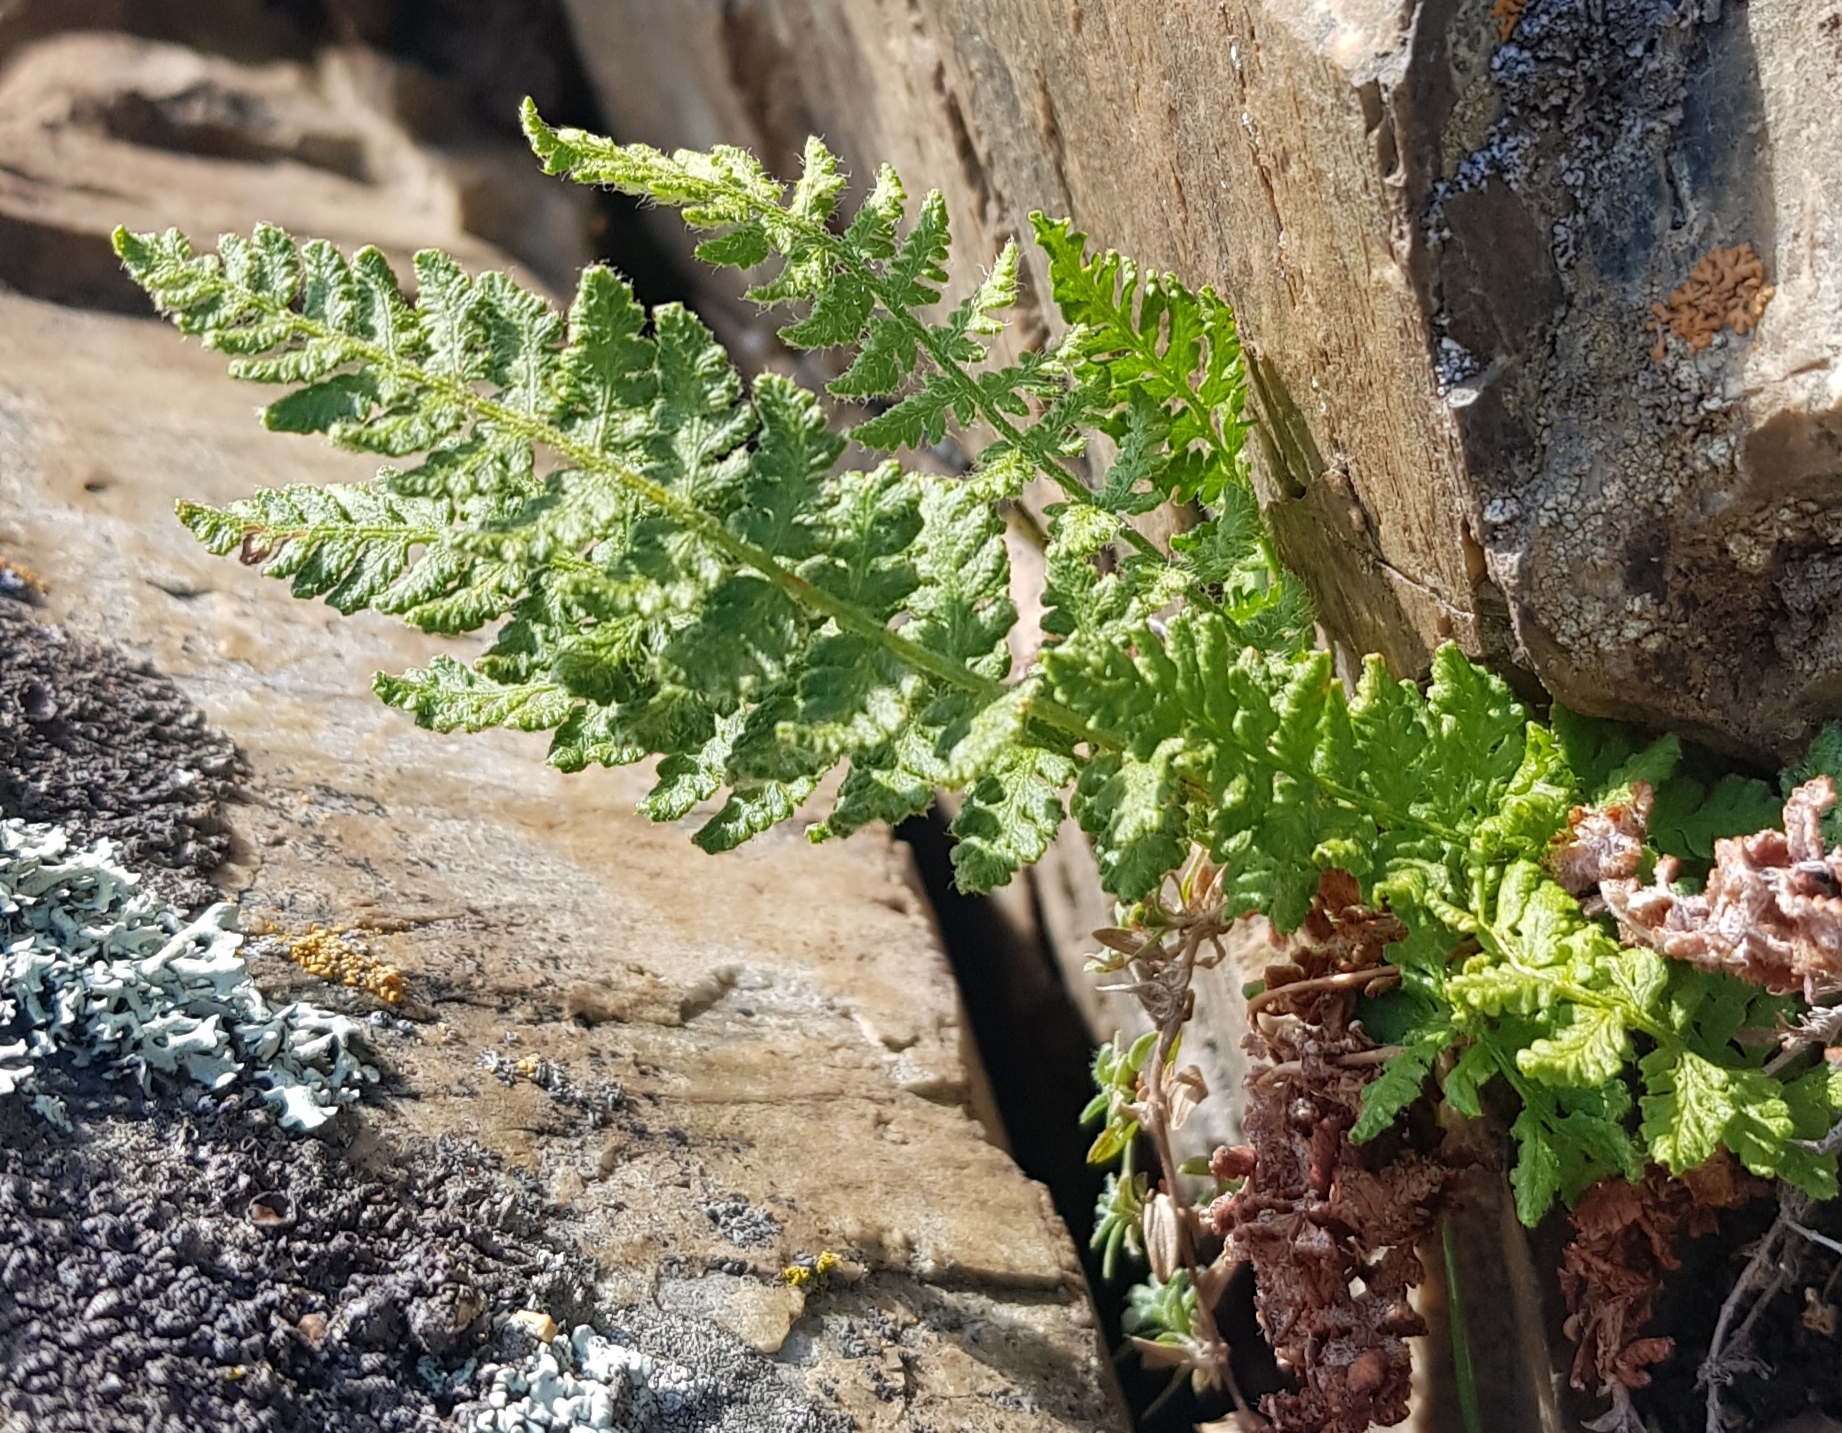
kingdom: Plantae
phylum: Tracheophyta
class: Polypodiopsida
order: Polypodiales
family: Woodsiaceae
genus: Woodsia
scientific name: Woodsia ilvensis
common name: Fragrant woodsia
